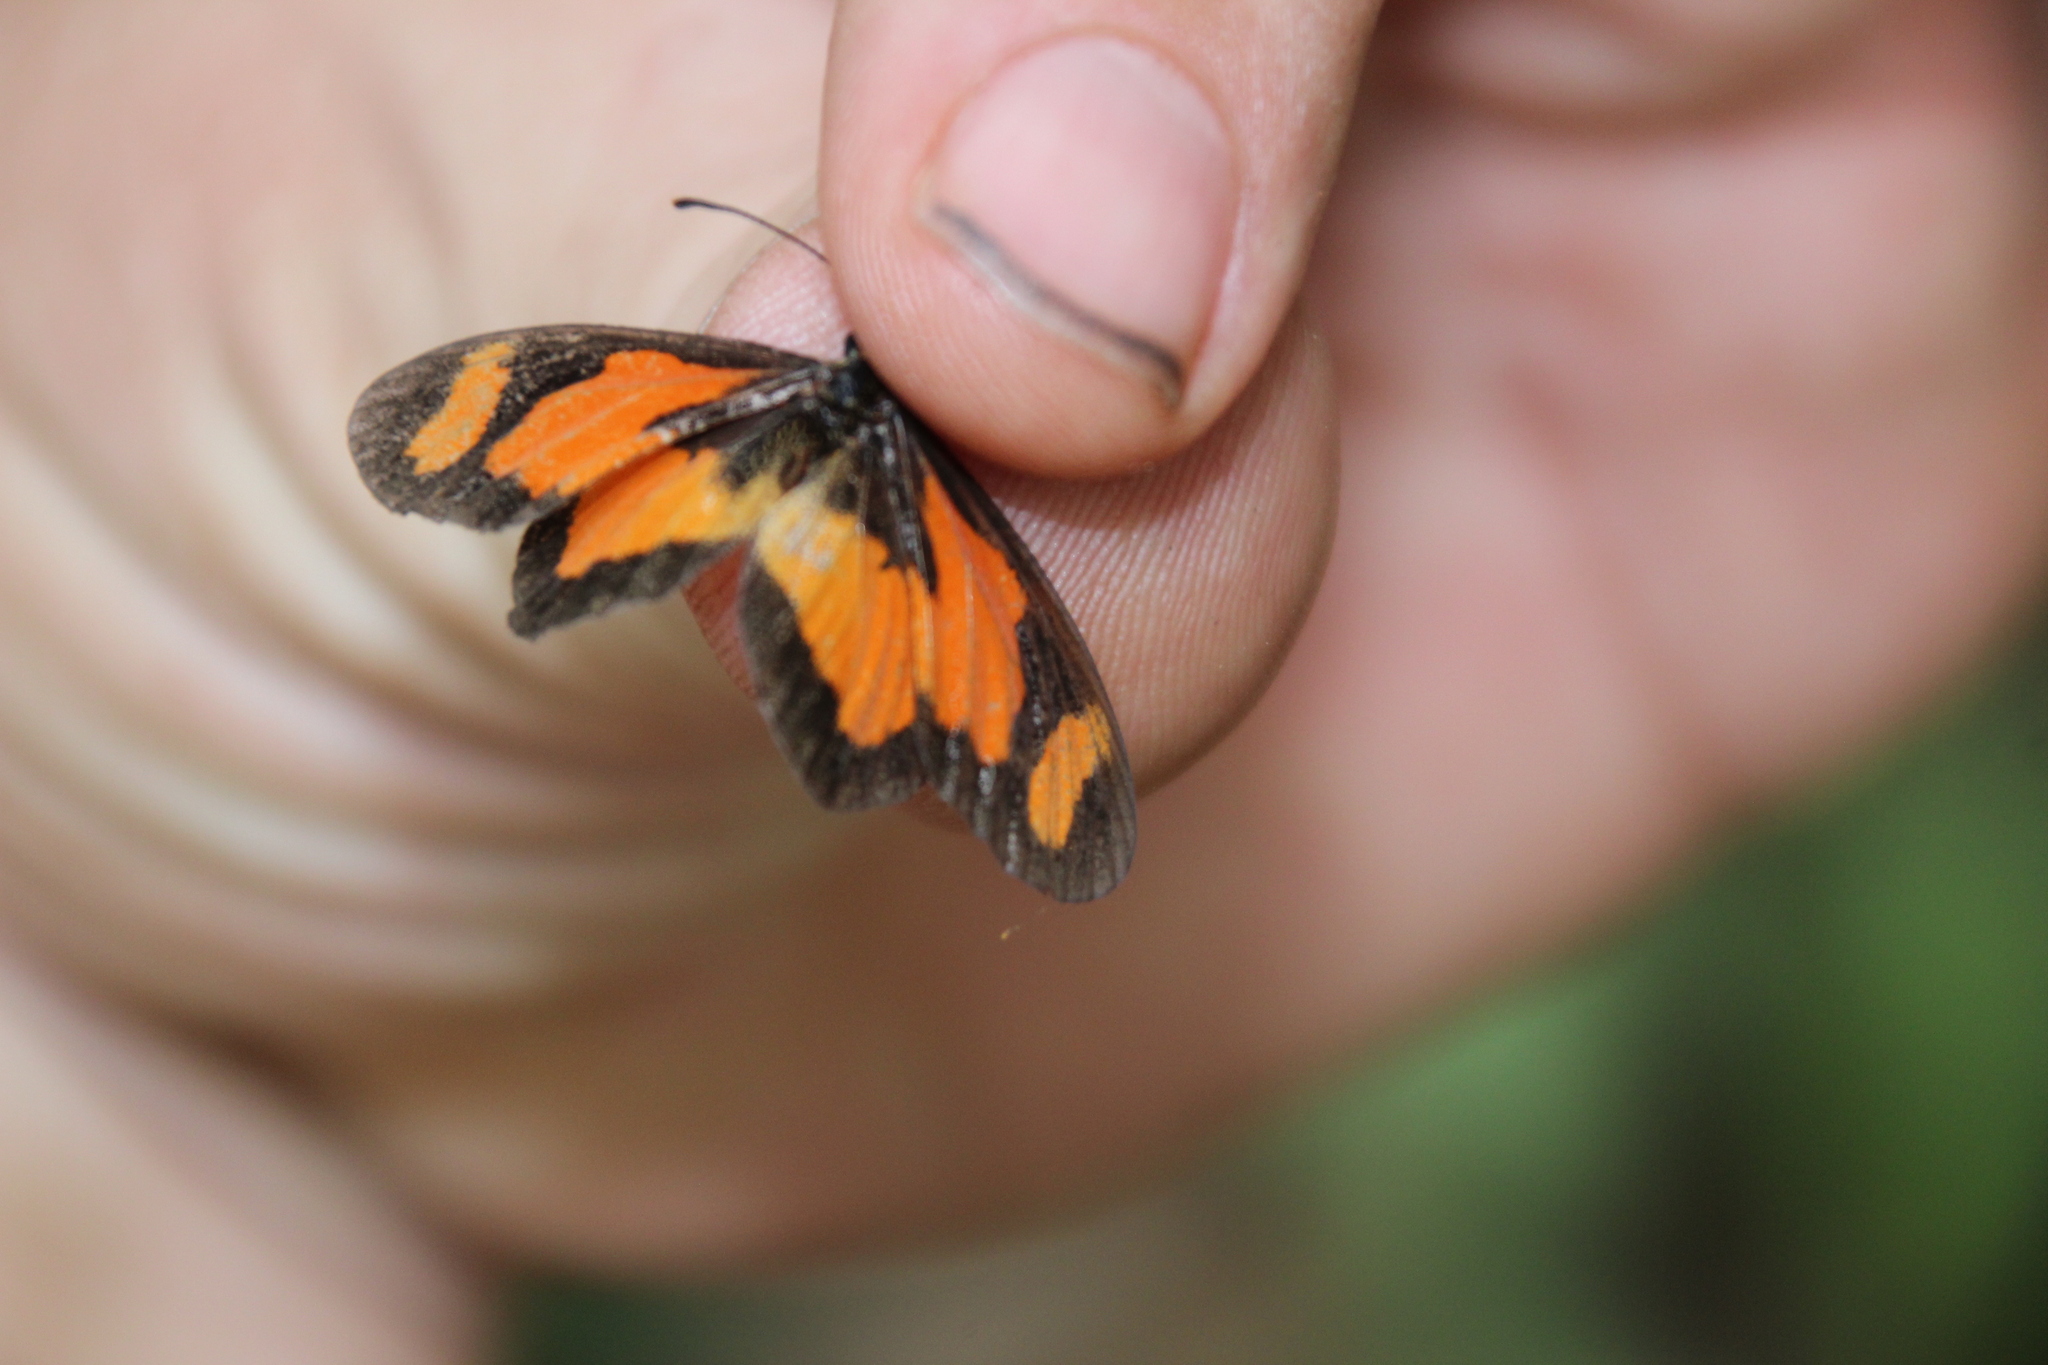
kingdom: Animalia
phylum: Arthropoda
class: Insecta
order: Lepidoptera
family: Nymphalidae
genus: Acraea
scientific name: Acraea Telchinia bonasia
